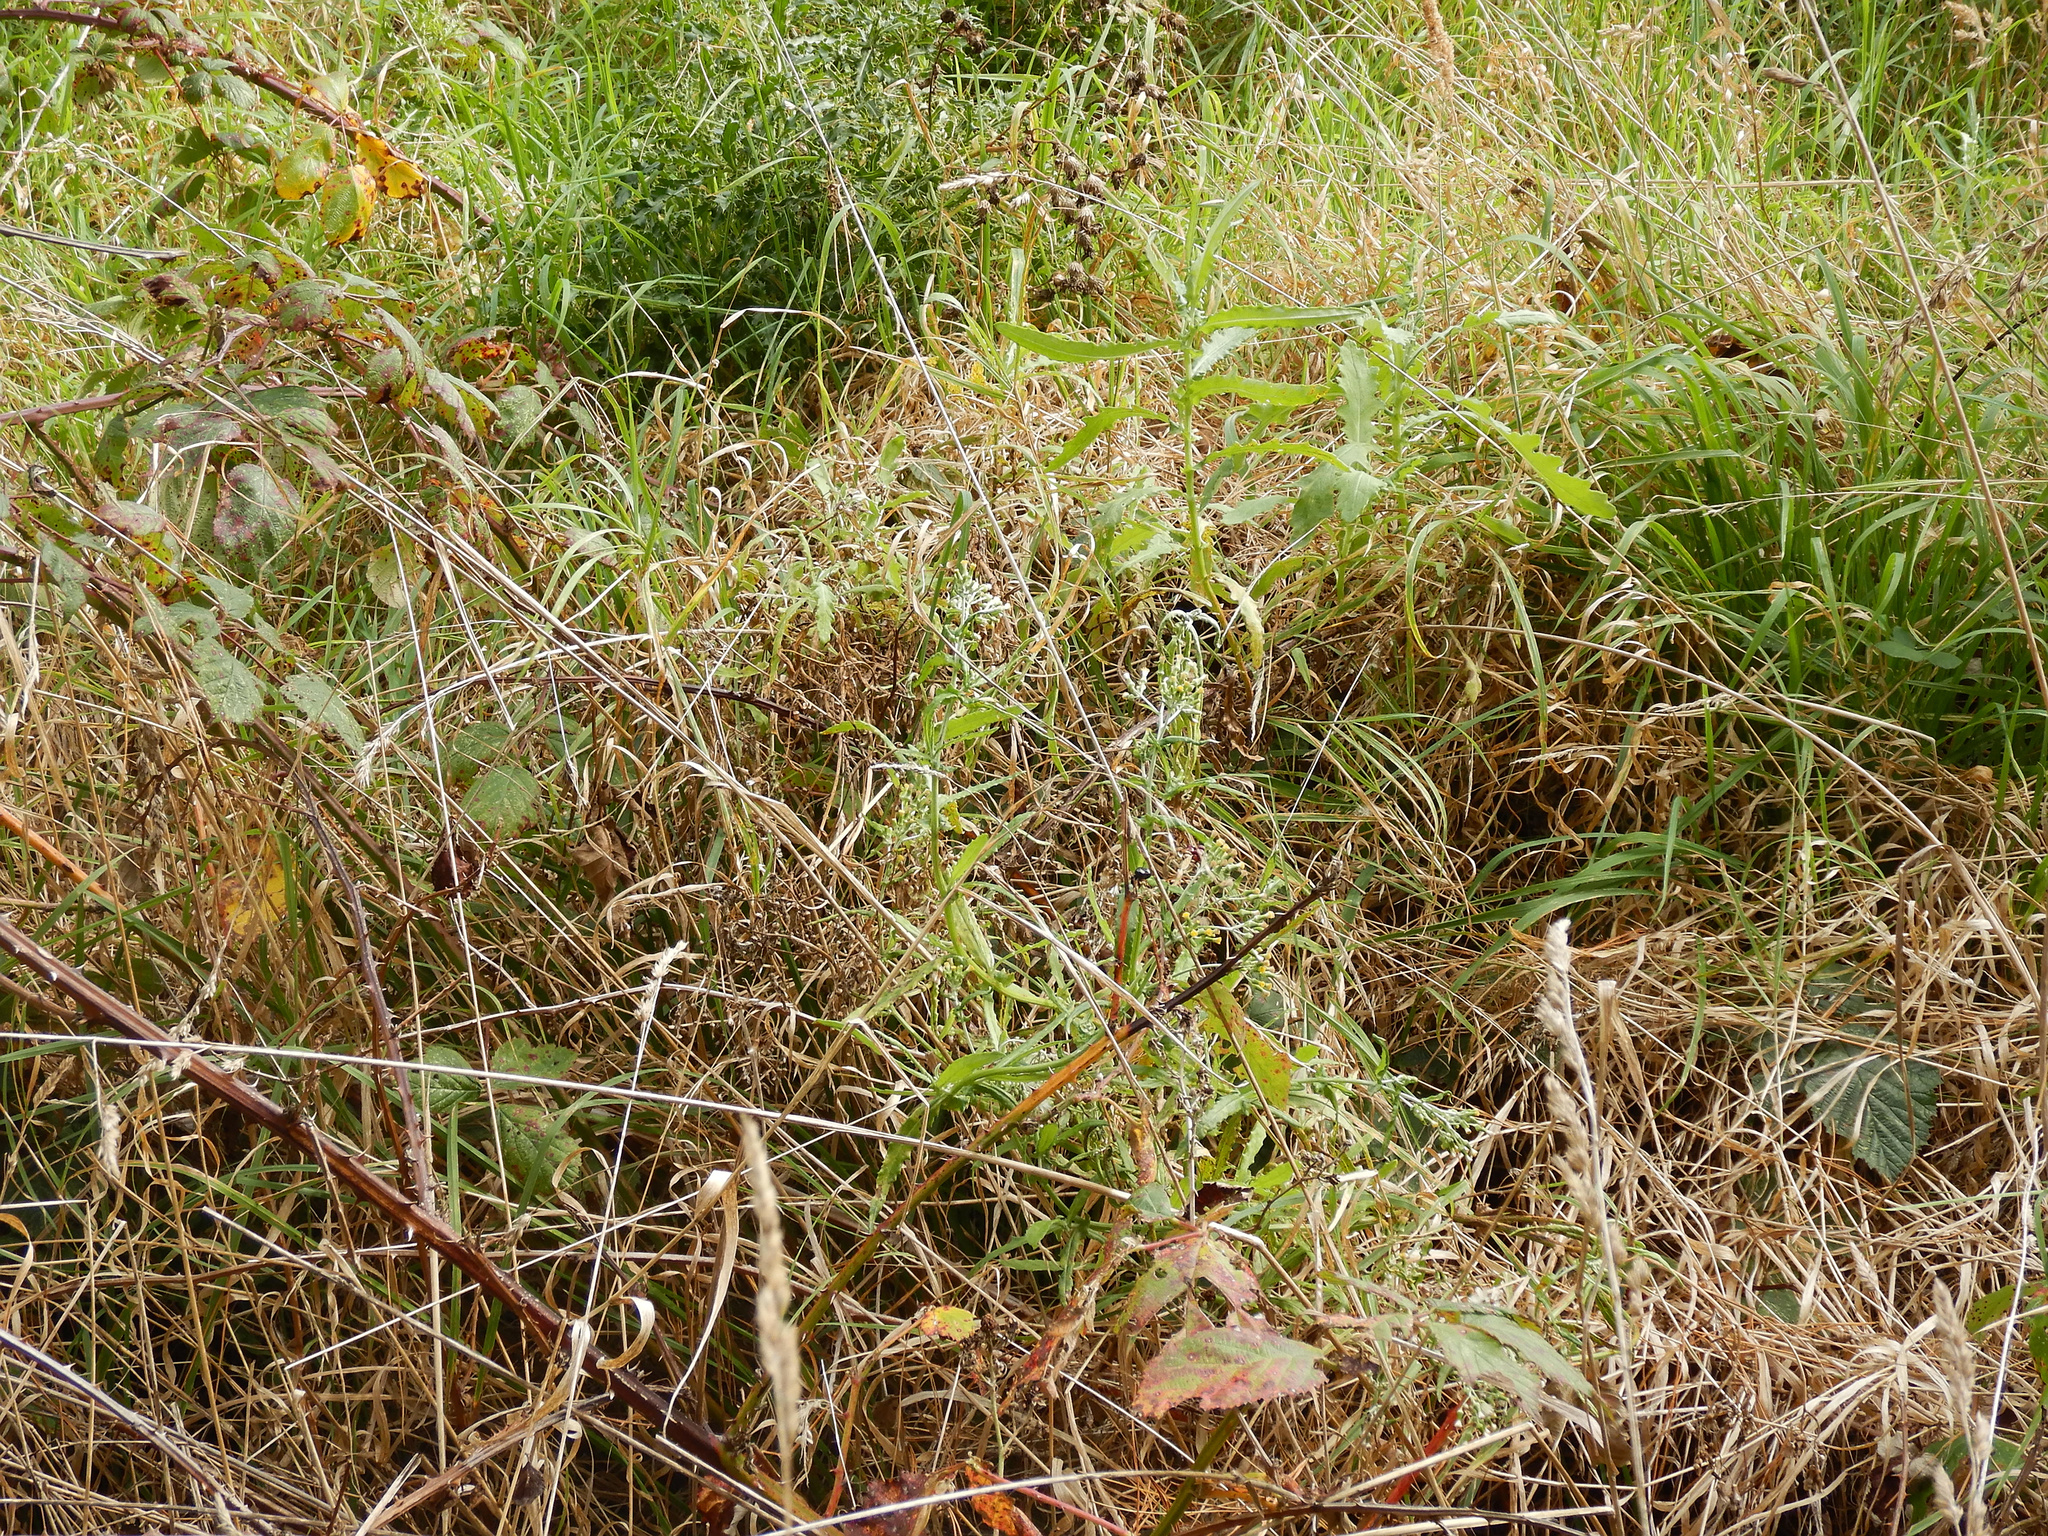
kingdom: Plantae
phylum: Tracheophyta
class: Magnoliopsida
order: Asterales
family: Asteraceae
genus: Senecio
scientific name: Senecio glomeratus
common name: Cutleaf burnweed
